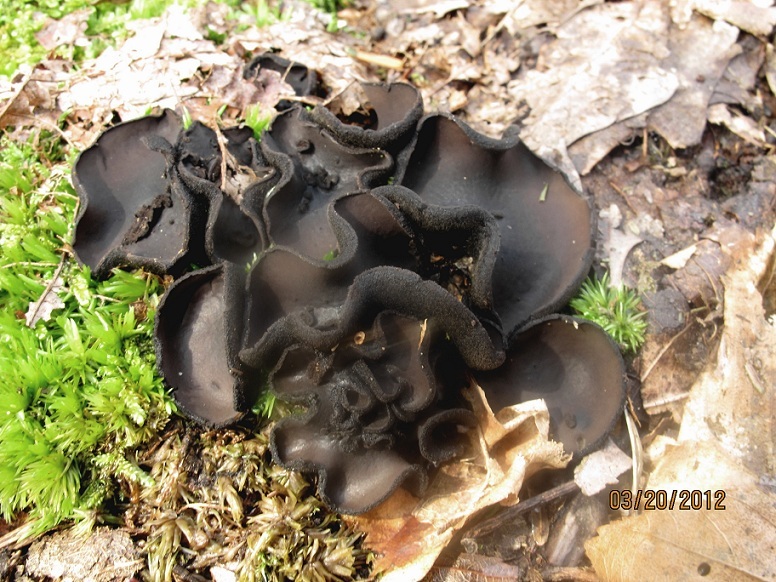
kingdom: Fungi
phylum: Ascomycota
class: Pezizomycetes
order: Pezizales
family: Sarcosomataceae
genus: Pseudoplectania
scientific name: Pseudoplectania nigrella
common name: Ebony cup
